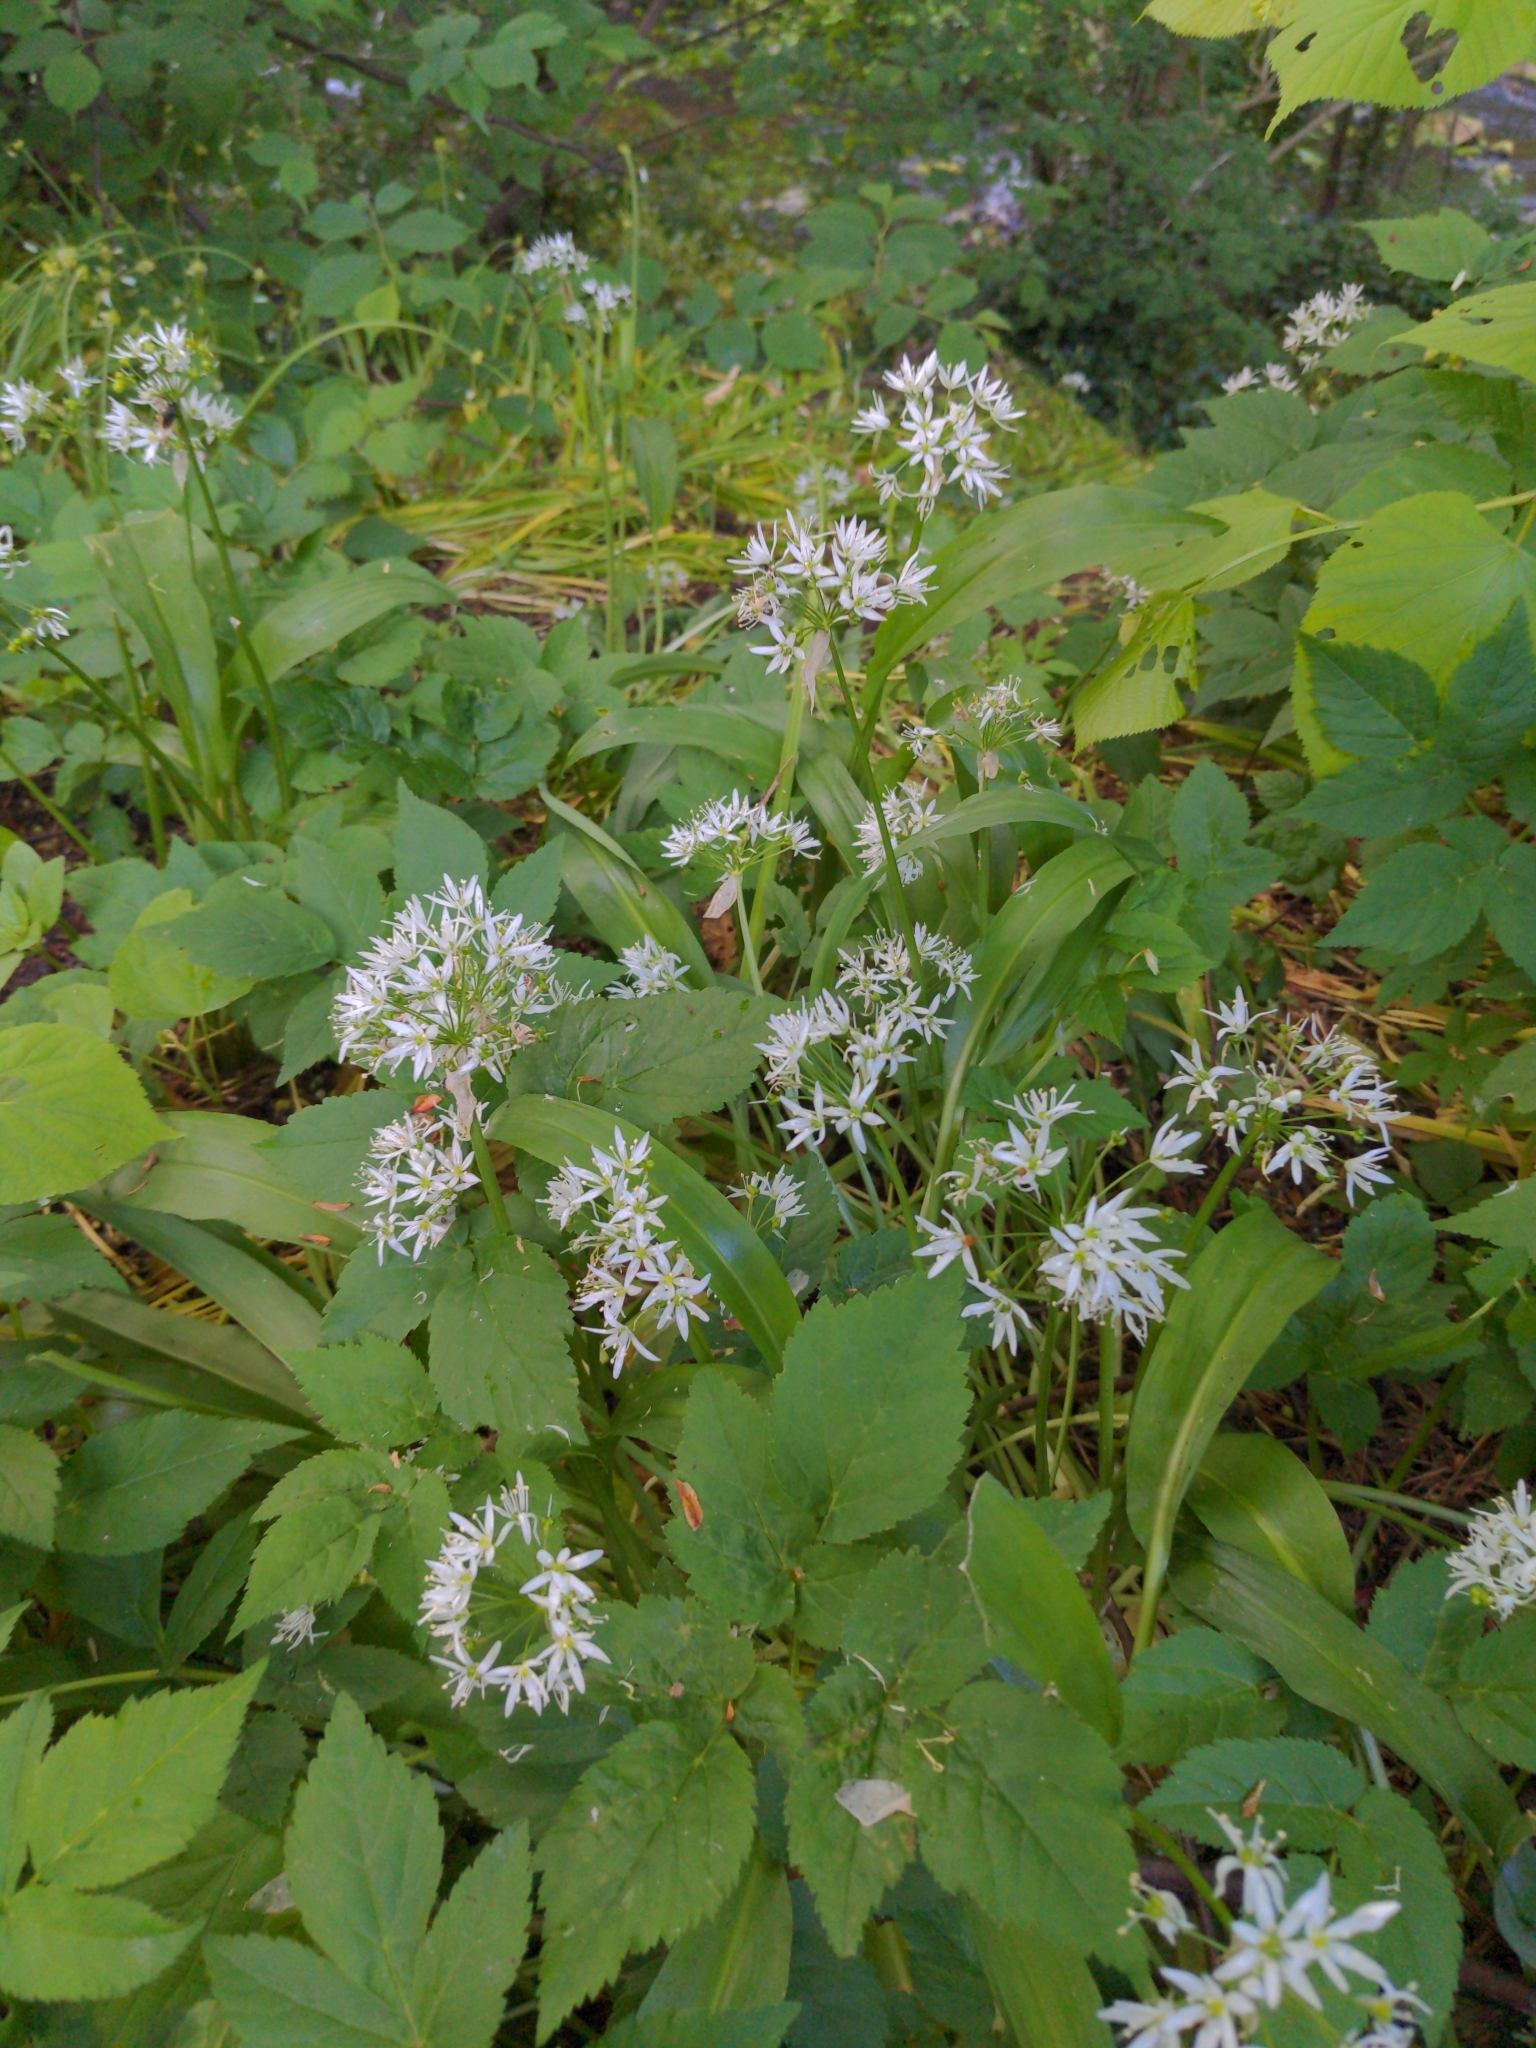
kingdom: Plantae
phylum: Tracheophyta
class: Liliopsida
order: Asparagales
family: Amaryllidaceae
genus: Allium
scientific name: Allium ursinum
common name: Ramsons
